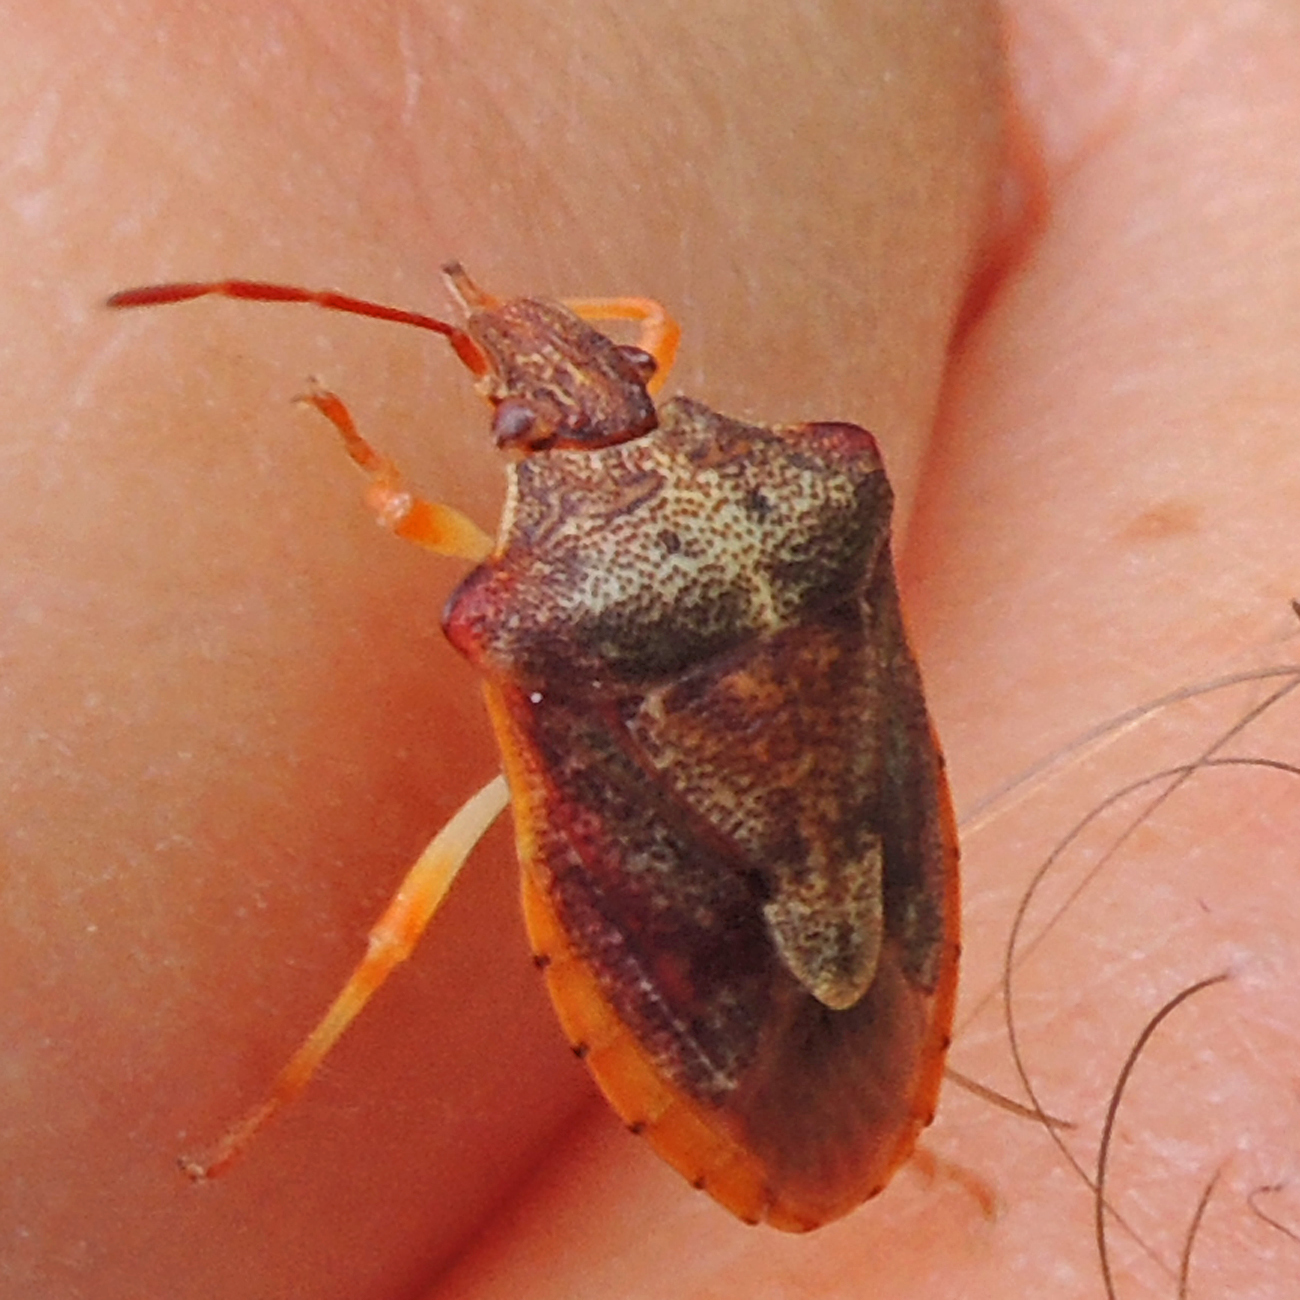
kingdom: Animalia
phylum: Arthropoda
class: Insecta
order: Hemiptera
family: Pentatomidae
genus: Dendrocoris
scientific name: Dendrocoris humeralis
